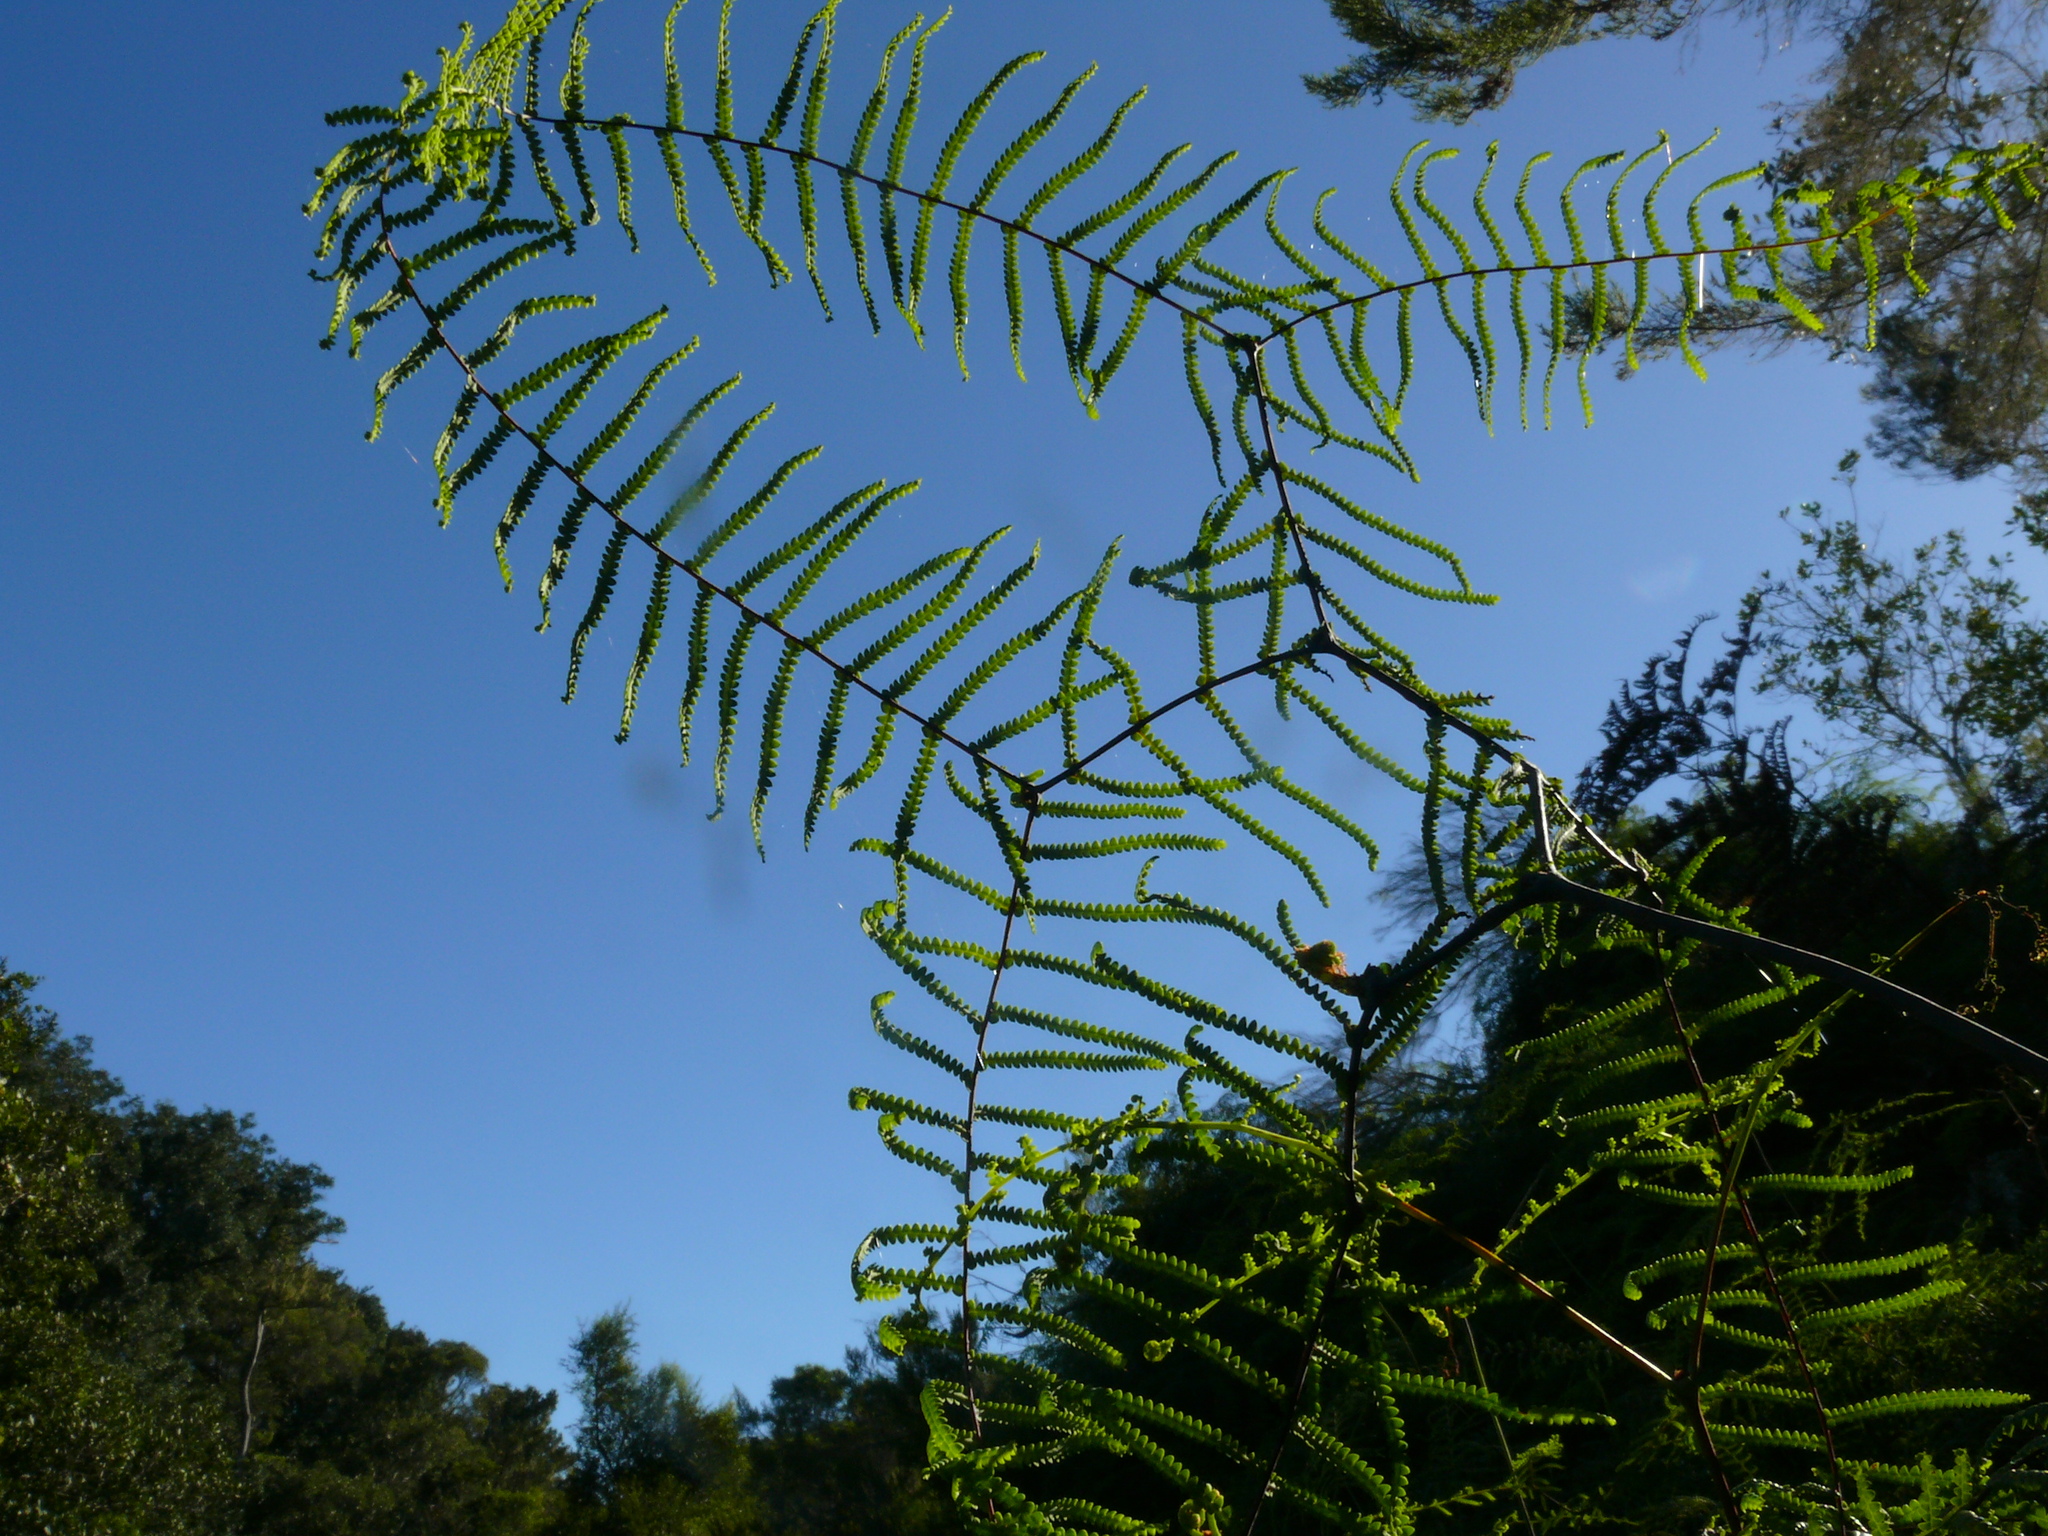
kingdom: Plantae
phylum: Tracheophyta
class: Polypodiopsida
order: Gleicheniales
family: Gleicheniaceae
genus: Gleichenia
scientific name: Gleichenia polypodioides
